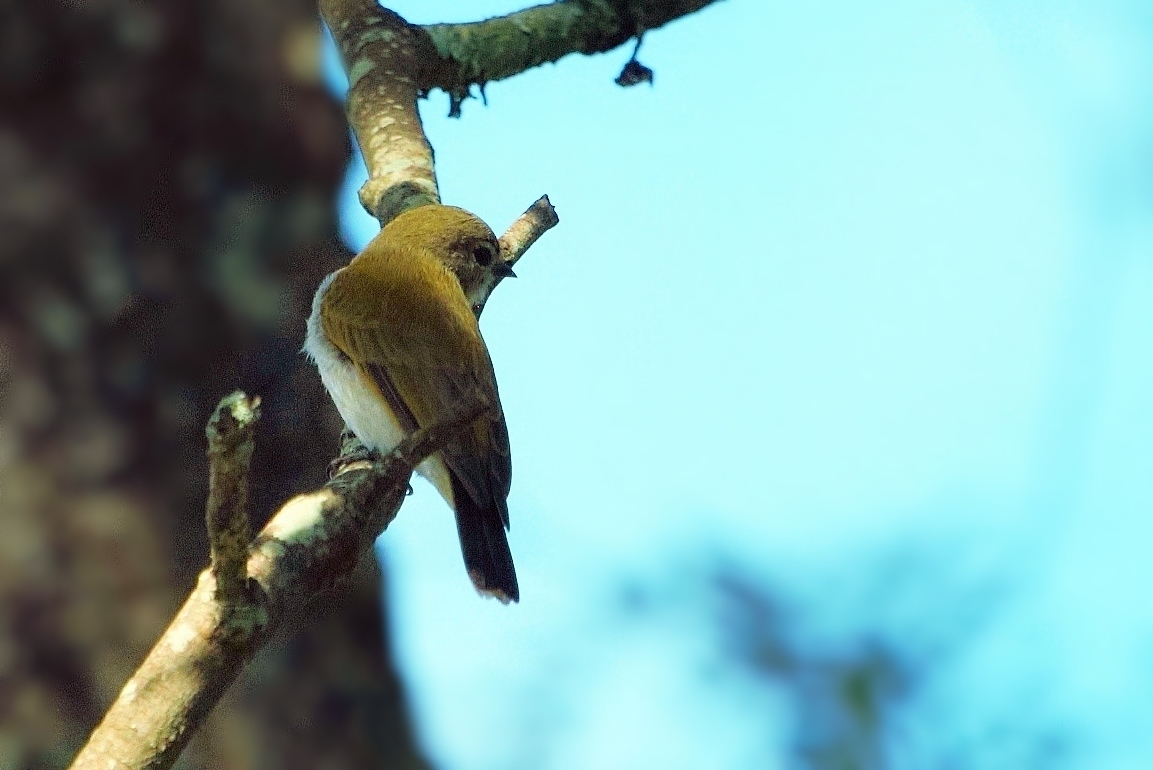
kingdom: Animalia
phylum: Chordata
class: Aves
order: Piciformes
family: Indicatoridae
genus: Prodotiscus
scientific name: Prodotiscus zambesiae
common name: Green-backed honeybird
